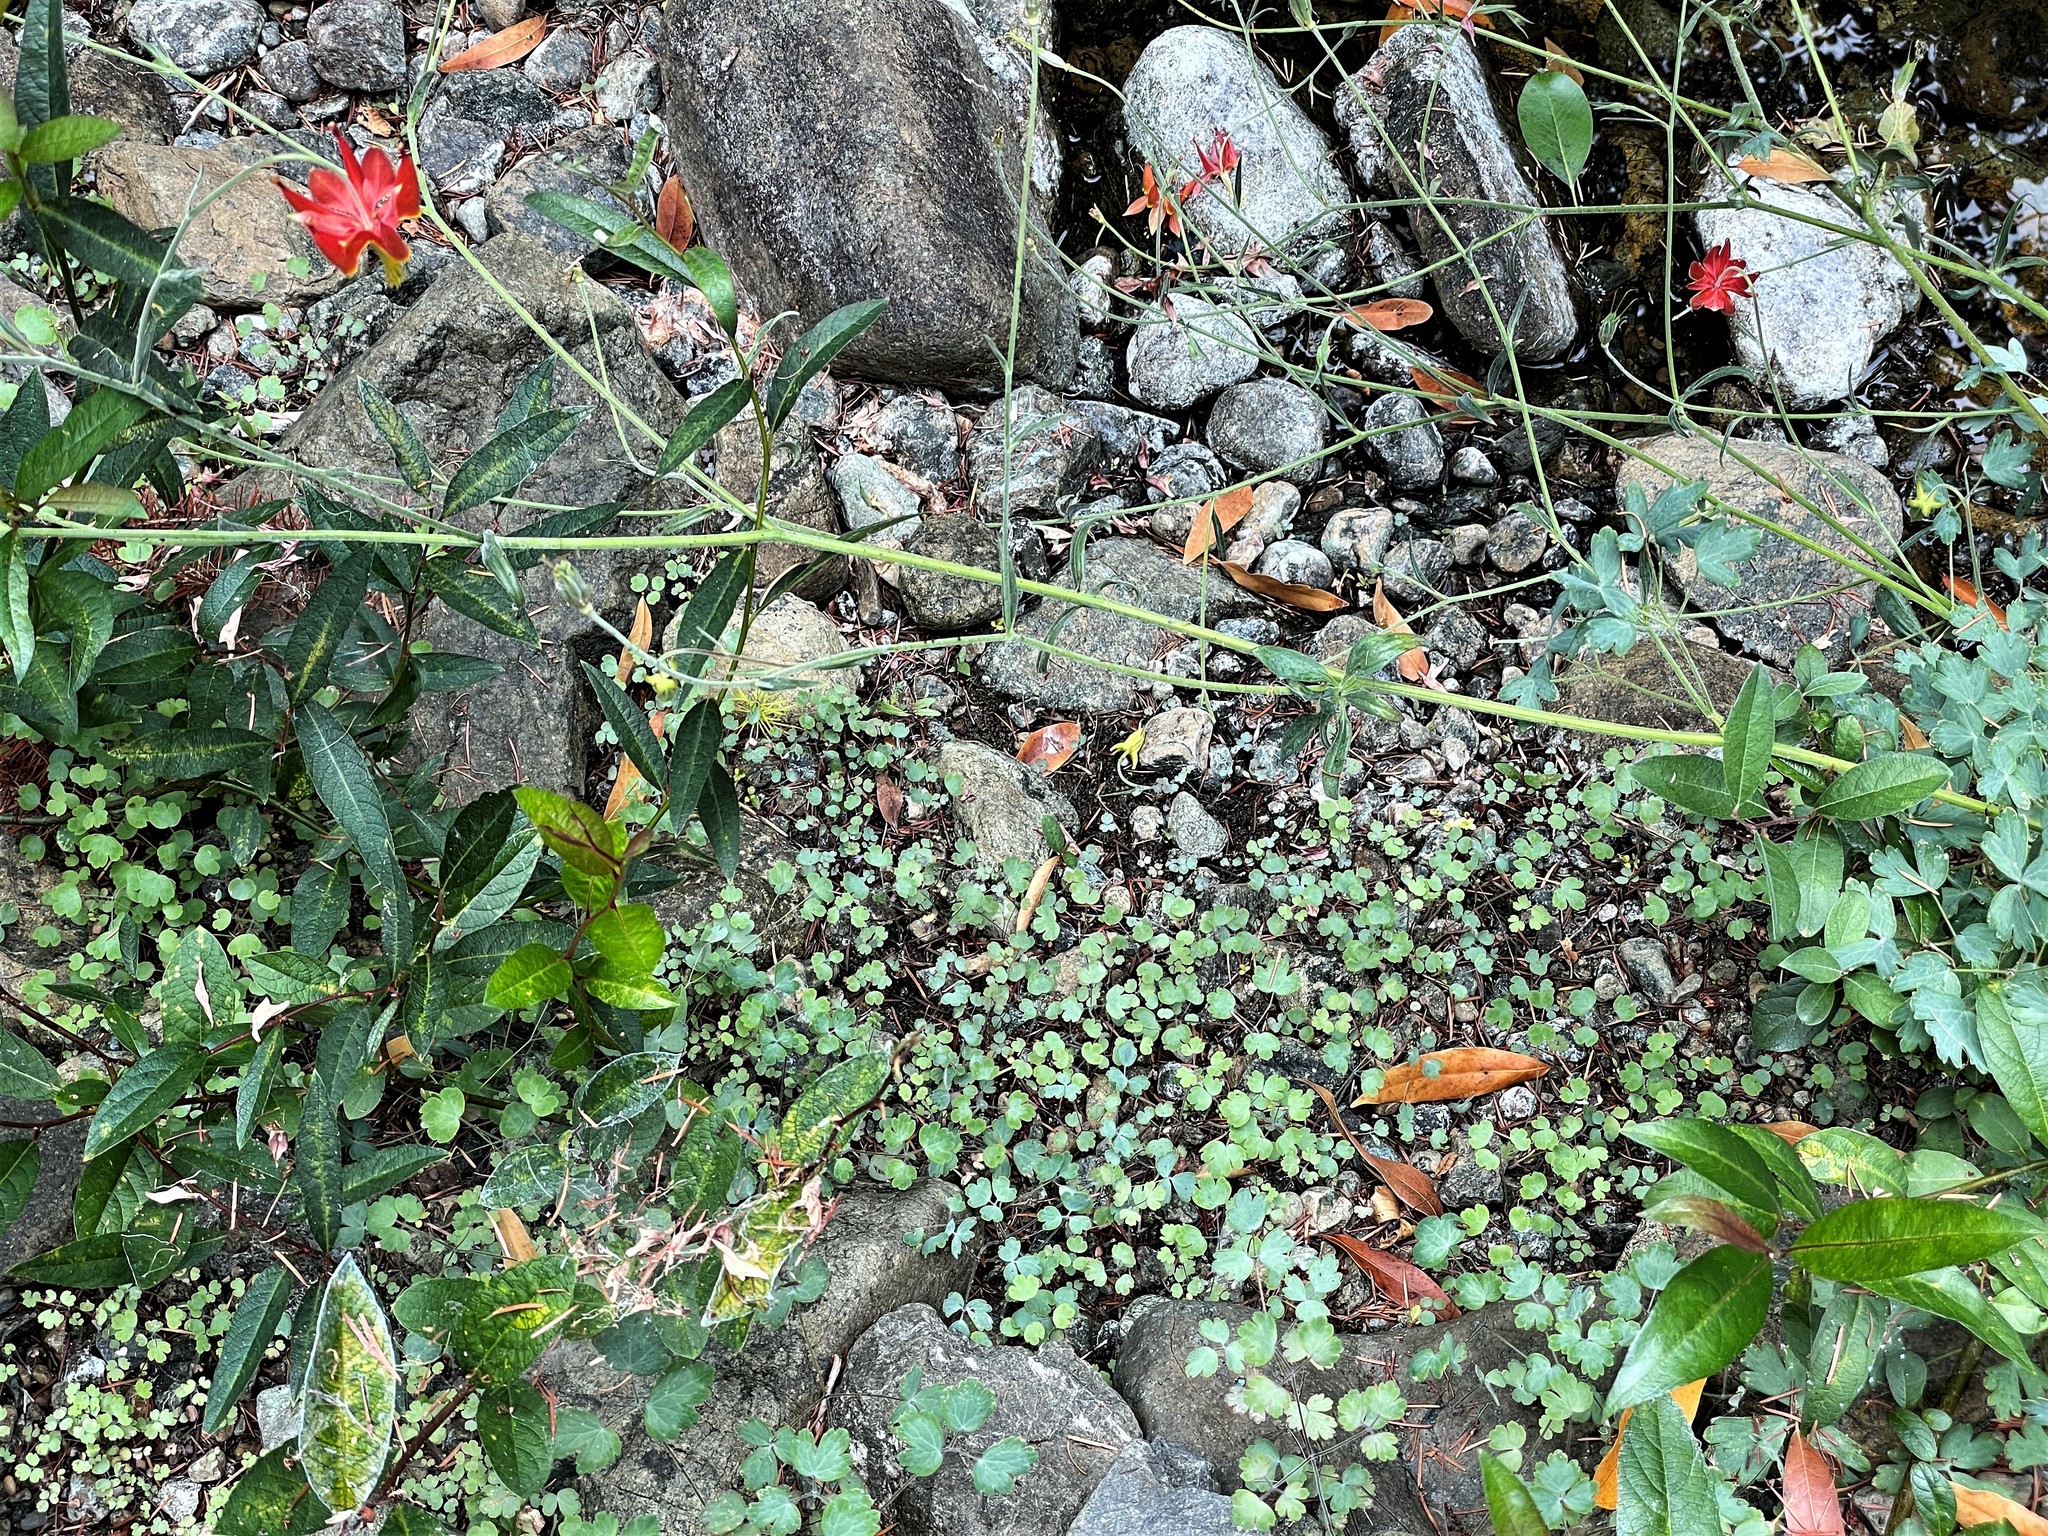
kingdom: Plantae
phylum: Tracheophyta
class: Magnoliopsida
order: Ranunculales
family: Ranunculaceae
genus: Aquilegia
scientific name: Aquilegia eximia
